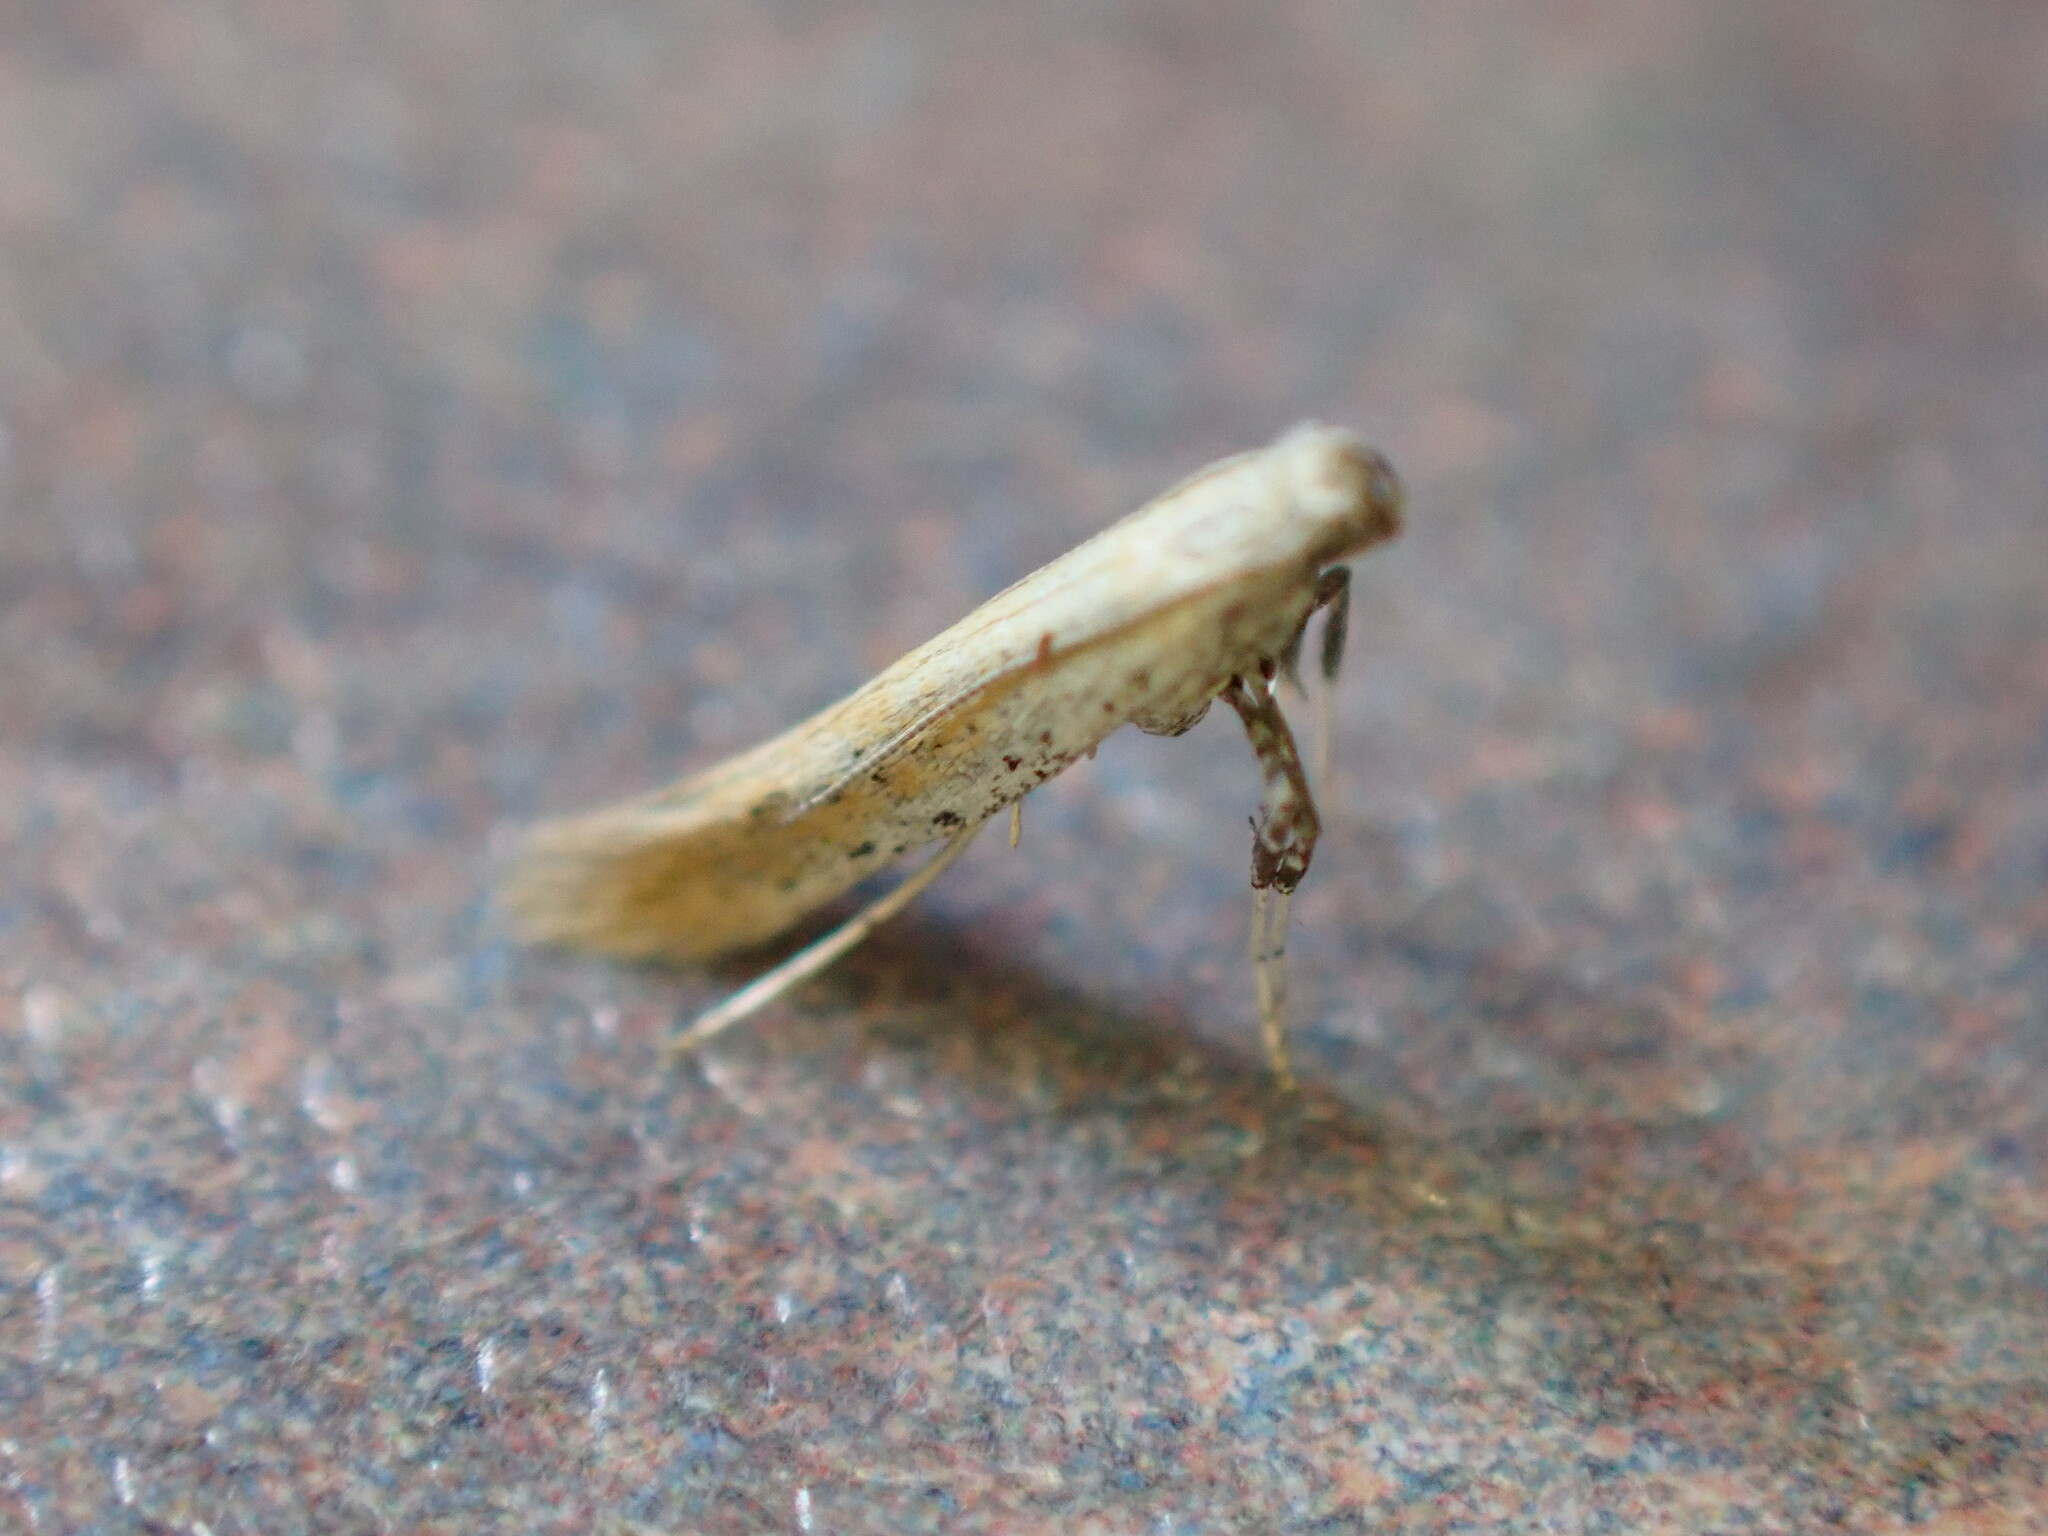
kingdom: Animalia
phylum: Arthropoda
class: Insecta
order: Lepidoptera
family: Gracillariidae
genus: Aspilapteryx
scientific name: Aspilapteryx tringipennella
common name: Ribwort slender
